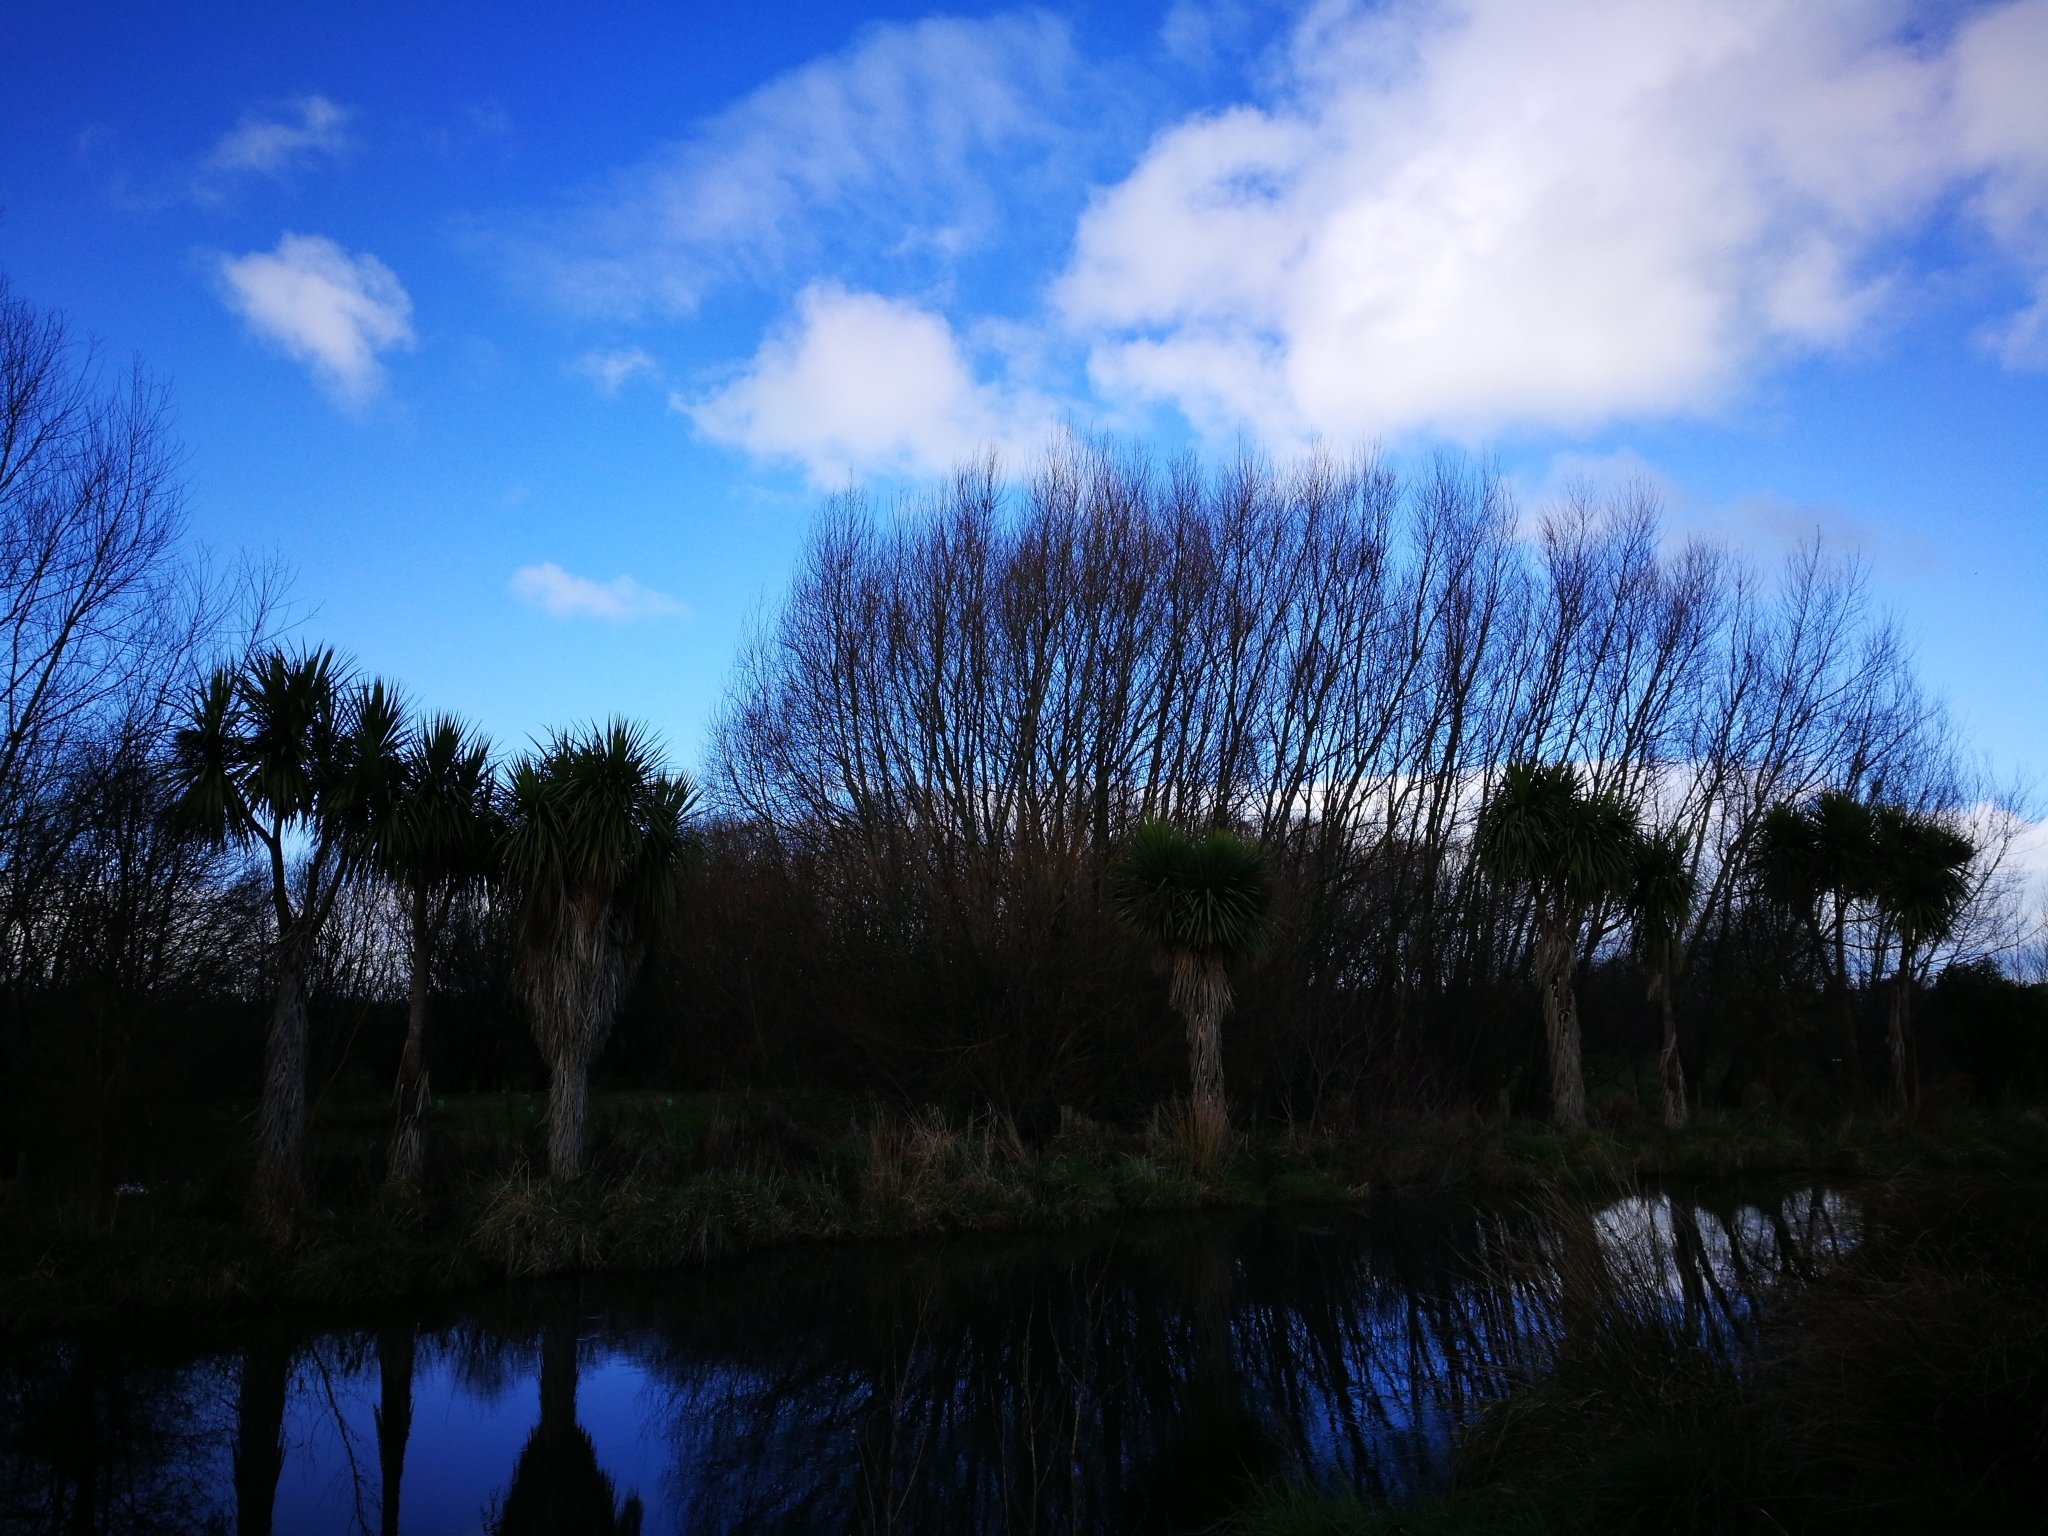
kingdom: Plantae
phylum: Tracheophyta
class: Liliopsida
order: Asparagales
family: Asparagaceae
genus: Cordyline
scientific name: Cordyline australis
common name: Cabbage-palm
